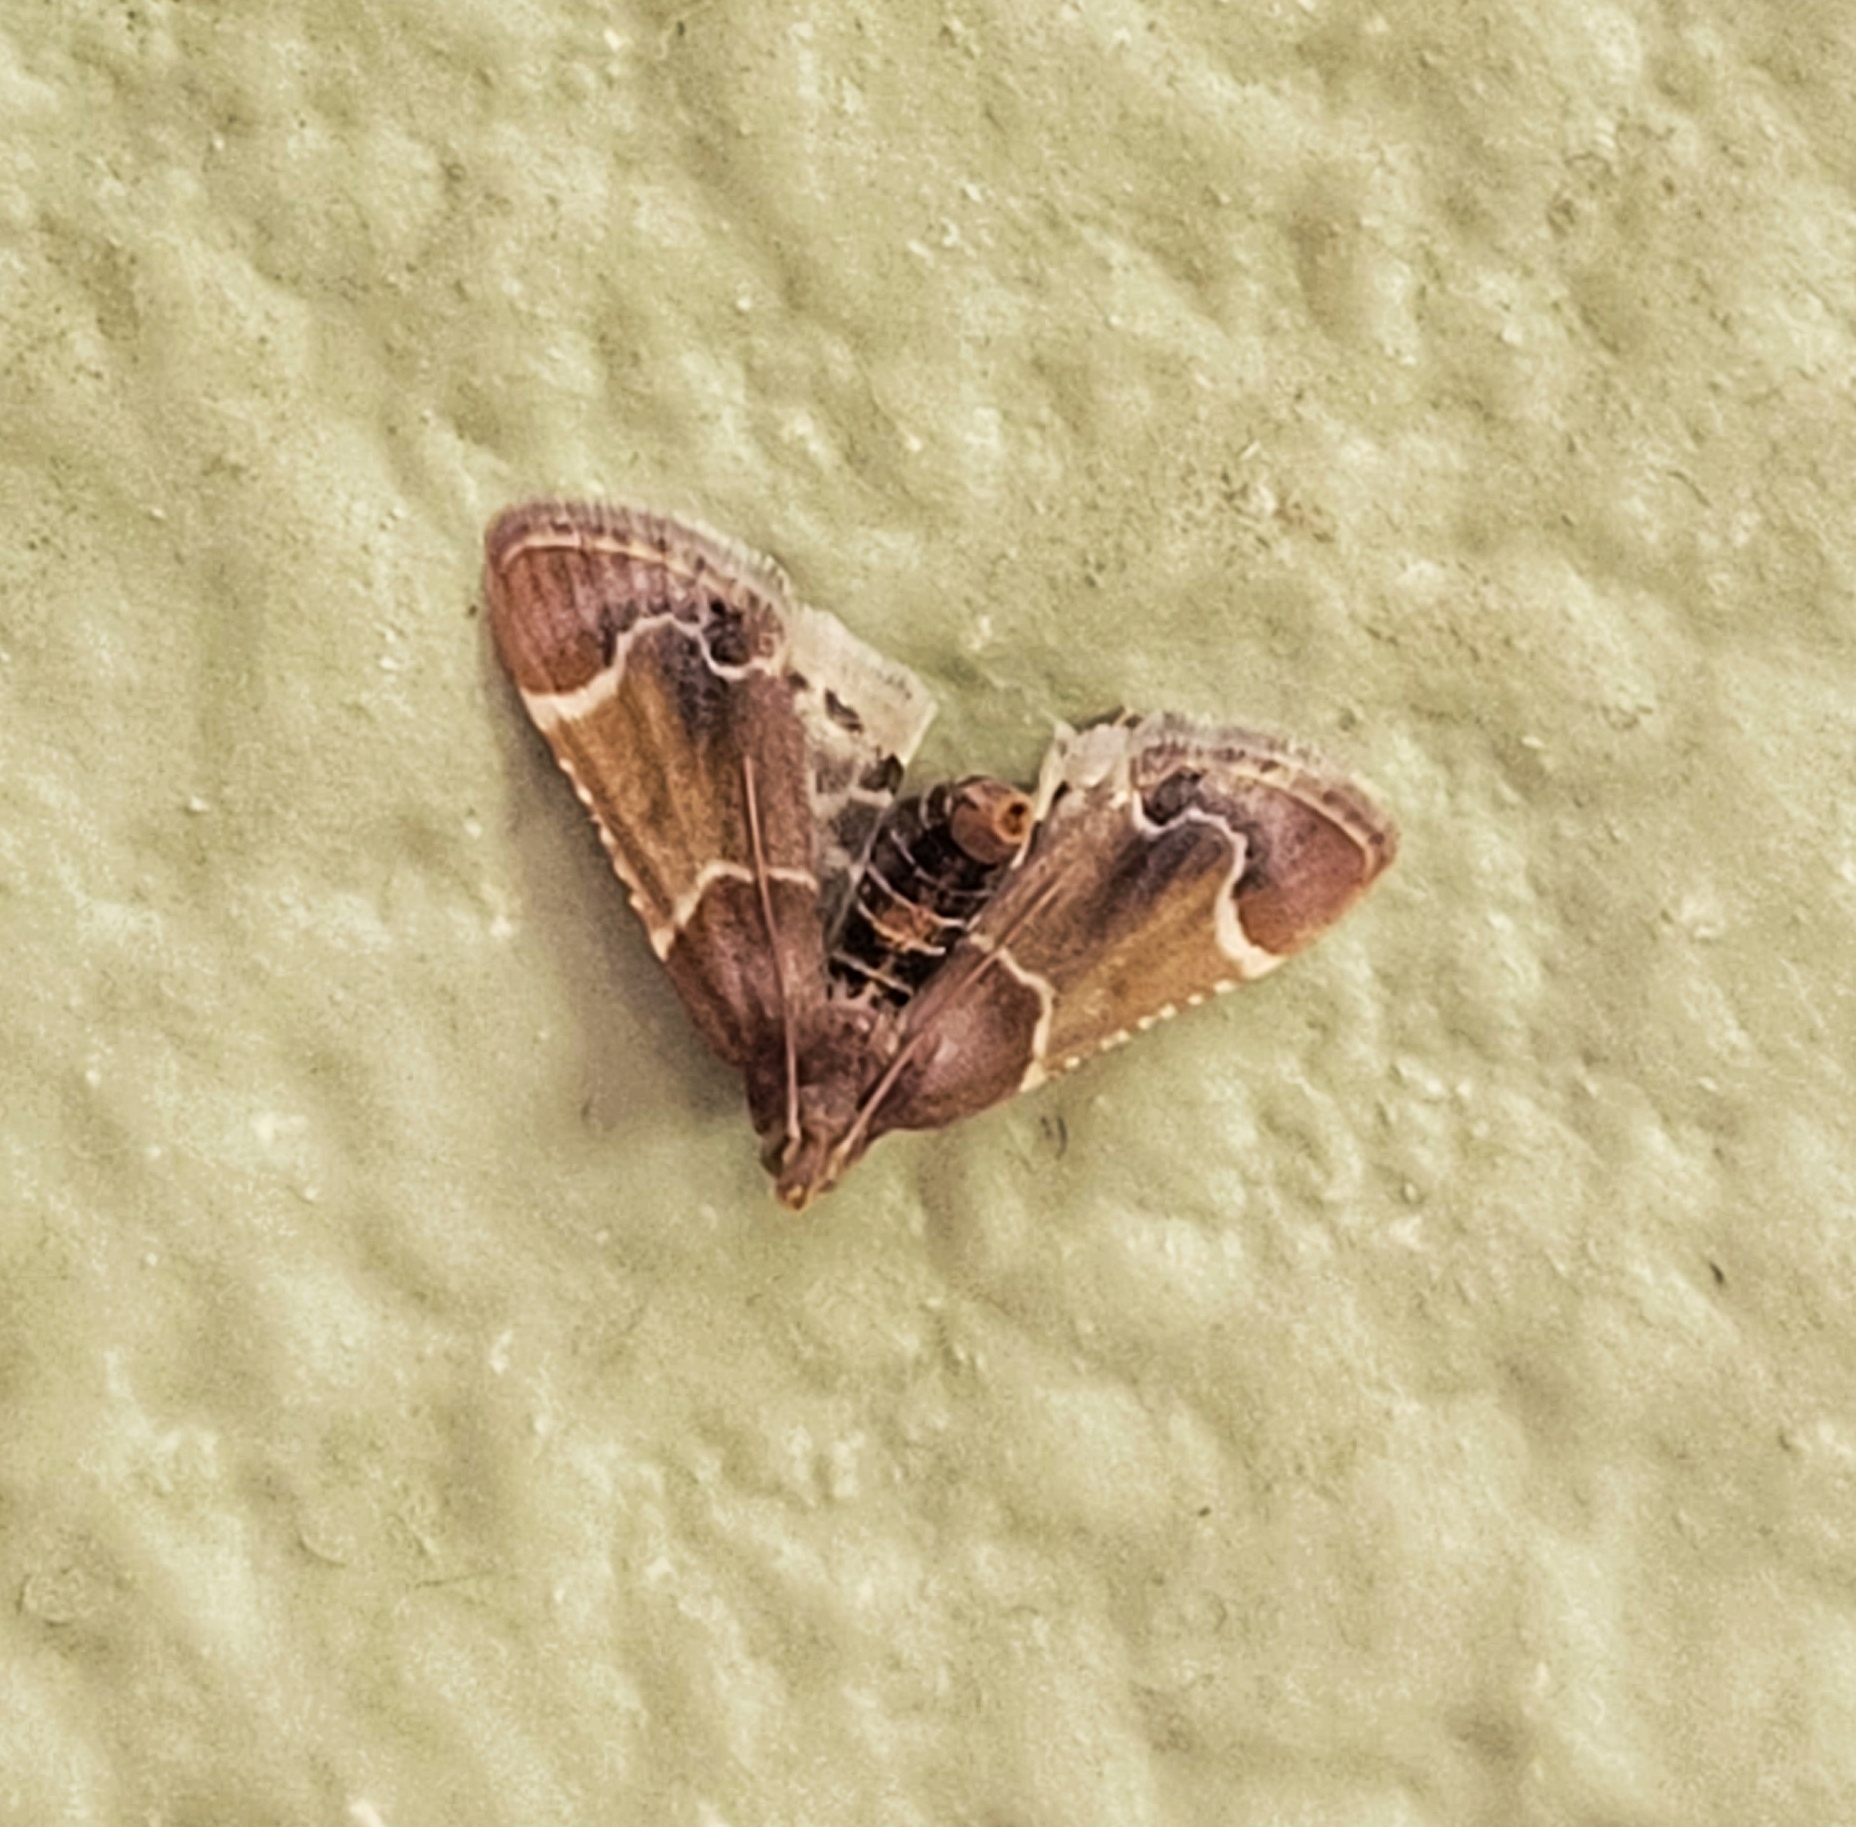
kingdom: Animalia
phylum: Arthropoda
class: Insecta
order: Lepidoptera
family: Pyralidae
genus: Pyralis
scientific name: Pyralis farinalis
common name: Meal moth
